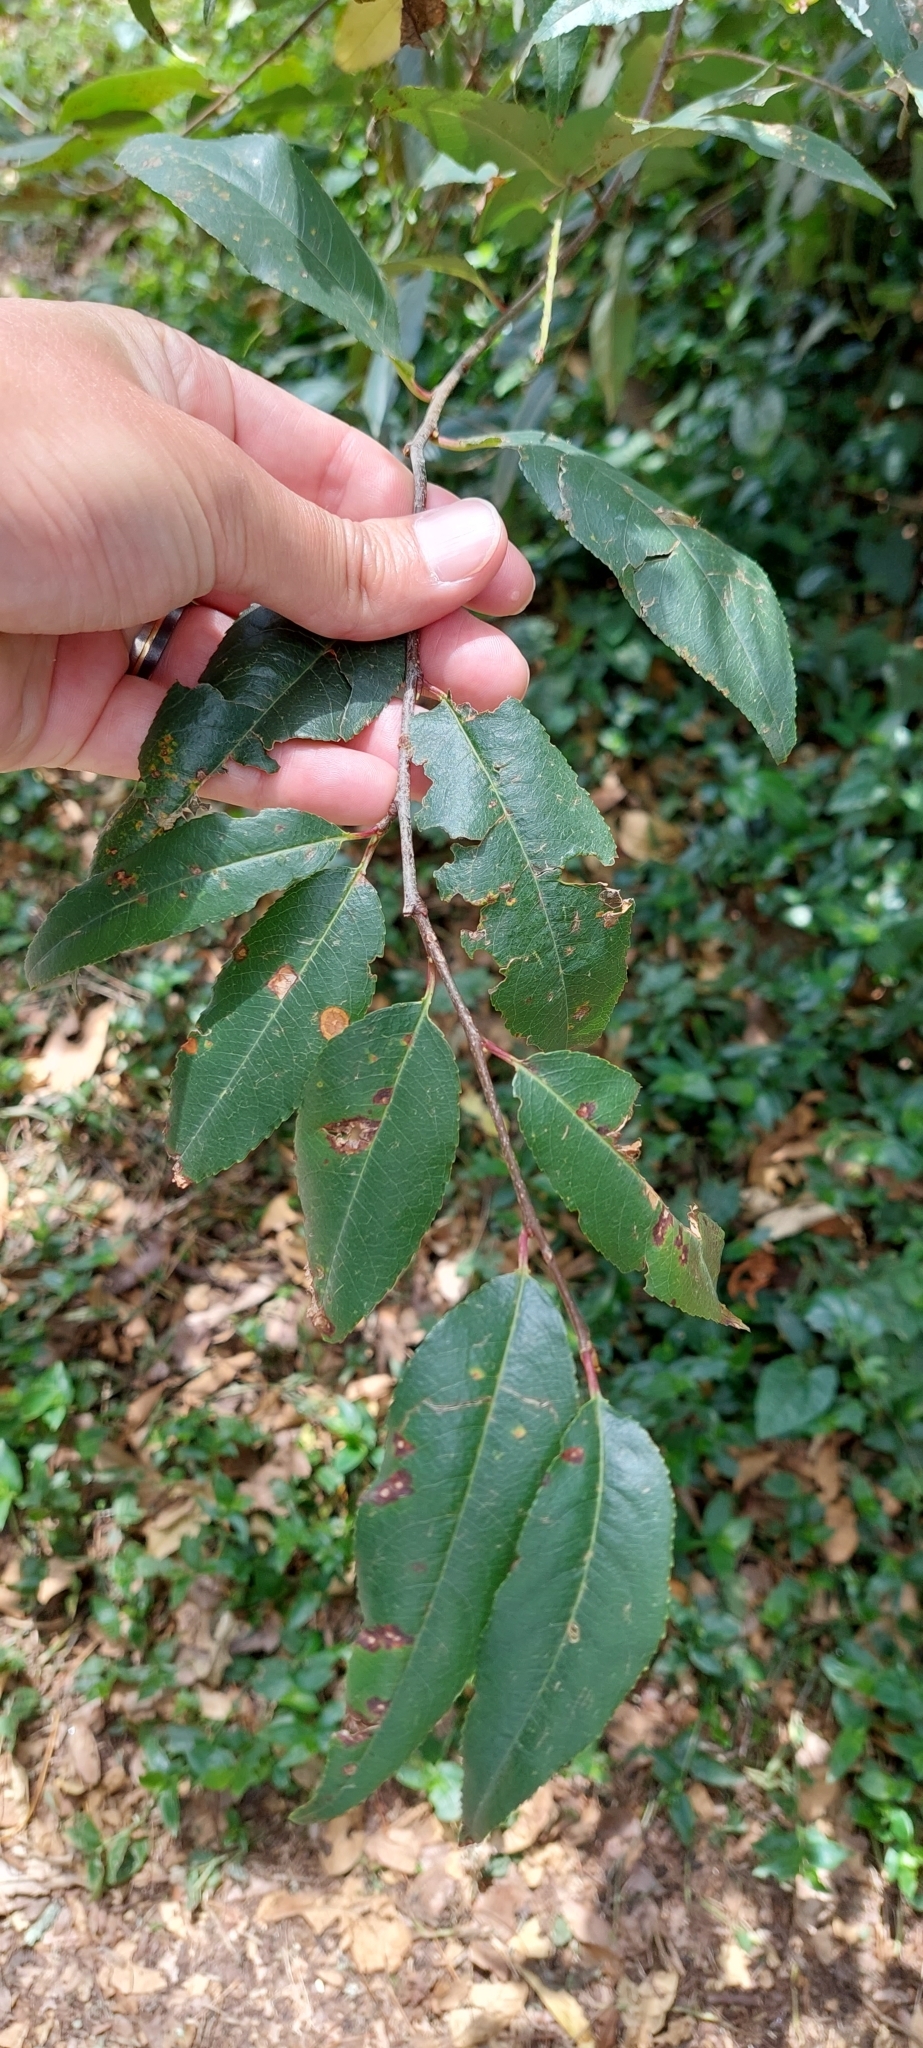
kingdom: Plantae
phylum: Tracheophyta
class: Magnoliopsida
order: Rosales
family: Rosaceae
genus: Prunus
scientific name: Prunus serotina
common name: Black cherry
